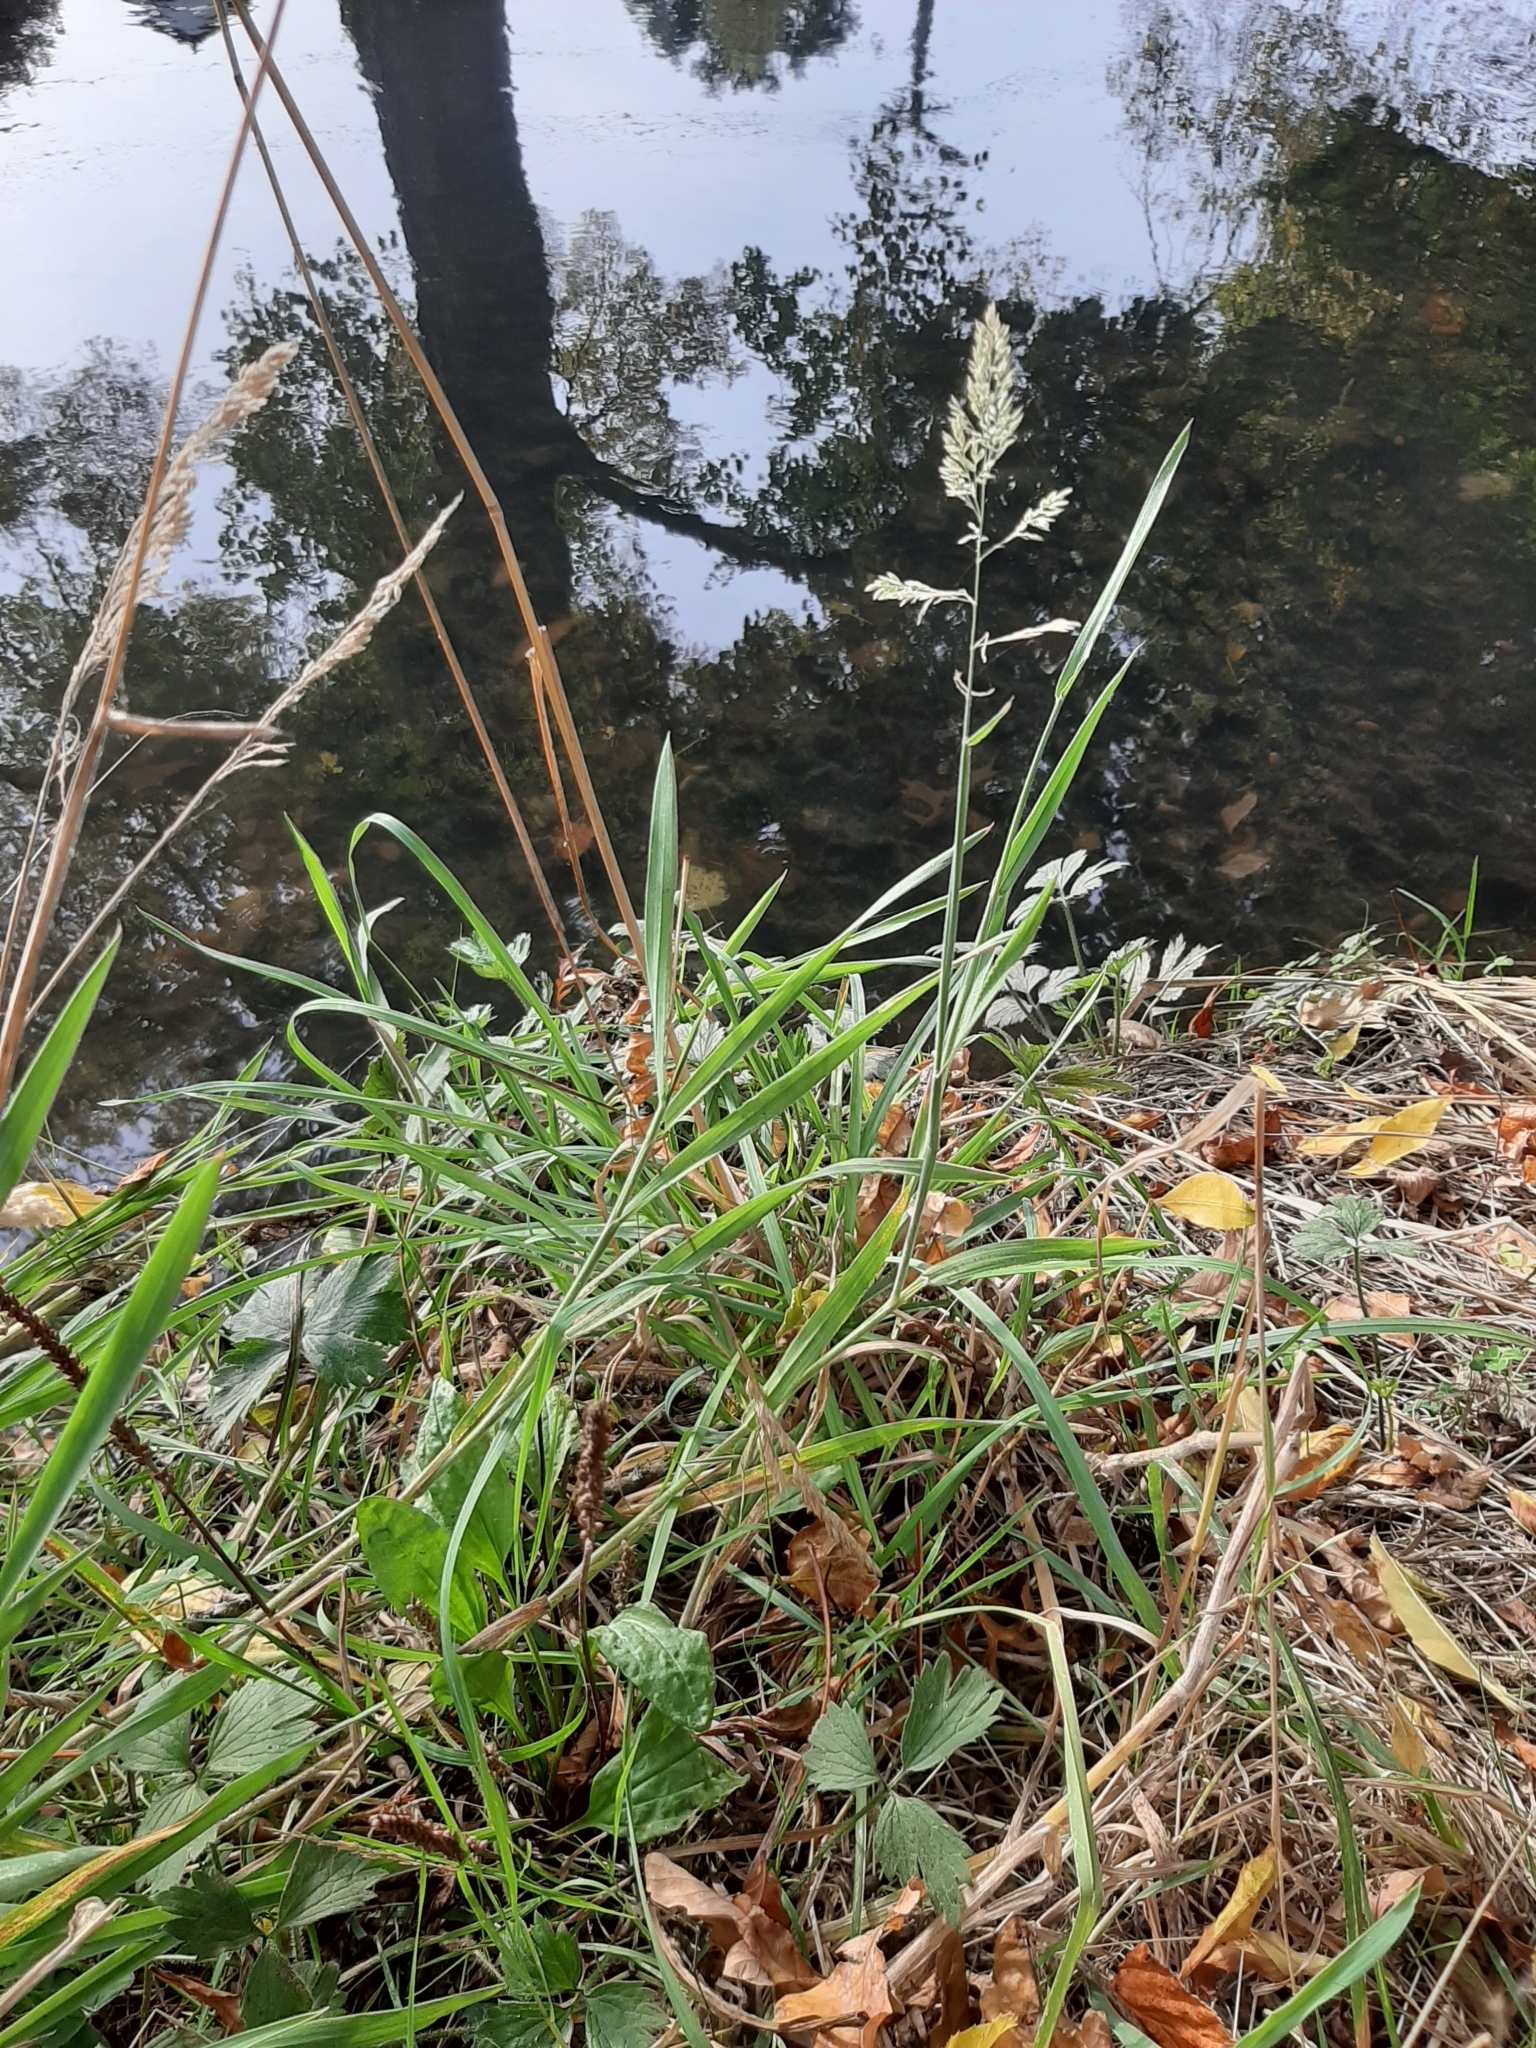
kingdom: Plantae
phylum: Tracheophyta
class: Liliopsida
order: Poales
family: Poaceae
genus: Holcus
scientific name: Holcus lanatus
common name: Yorkshire-fog
